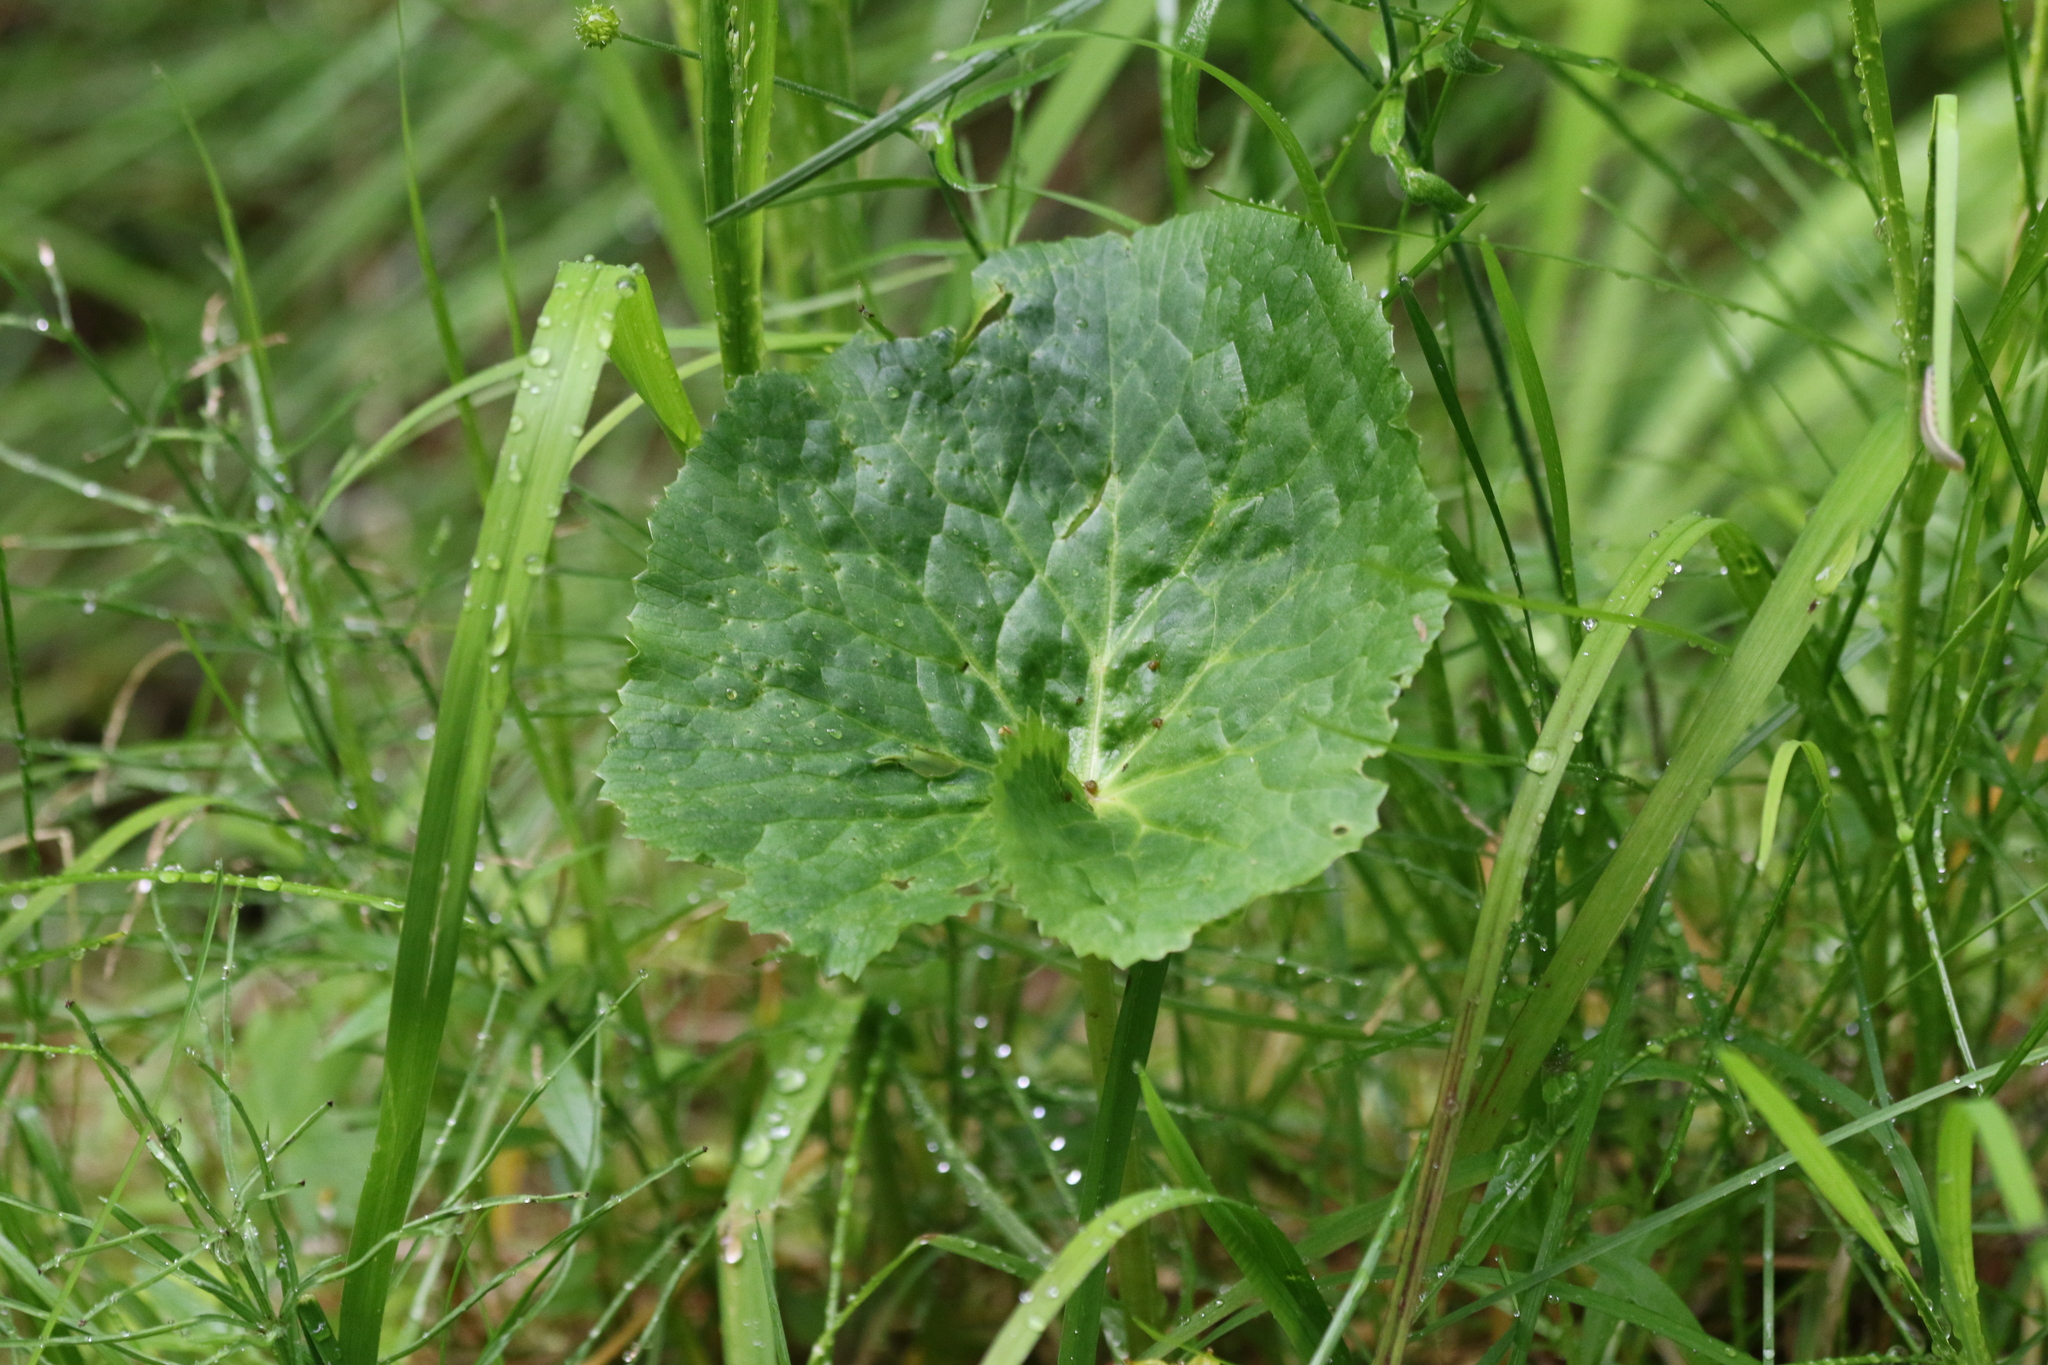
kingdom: Plantae
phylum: Tracheophyta
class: Magnoliopsida
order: Ranunculales
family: Ranunculaceae
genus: Caltha
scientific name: Caltha palustris
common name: Marsh marigold
